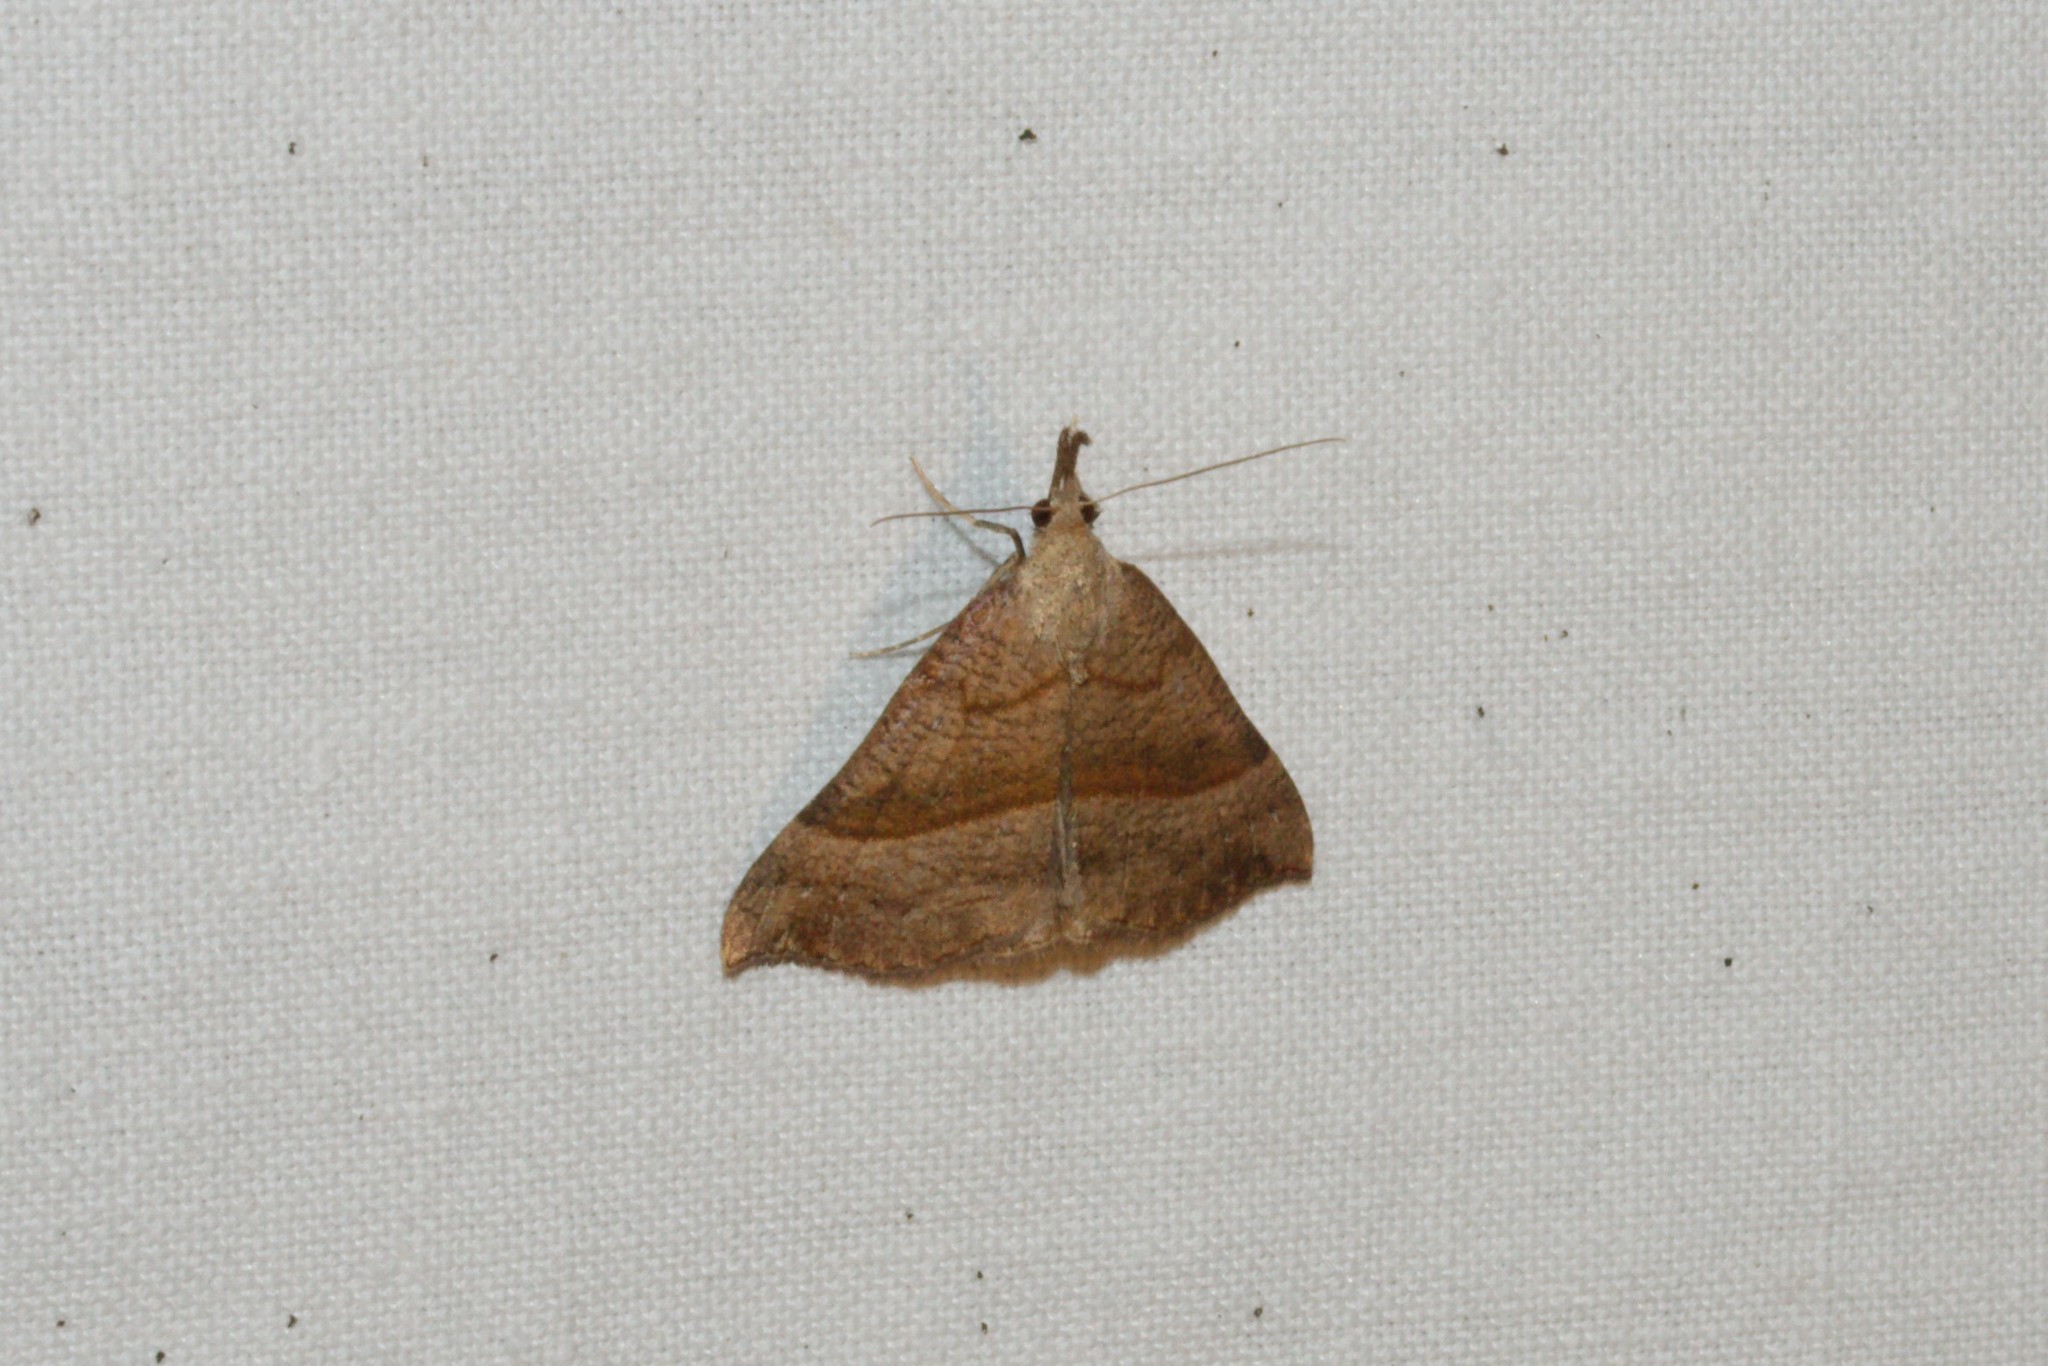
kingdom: Animalia
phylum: Arthropoda
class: Insecta
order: Lepidoptera
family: Erebidae
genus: Hypena
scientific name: Hypena proboscidalis
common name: Snout
